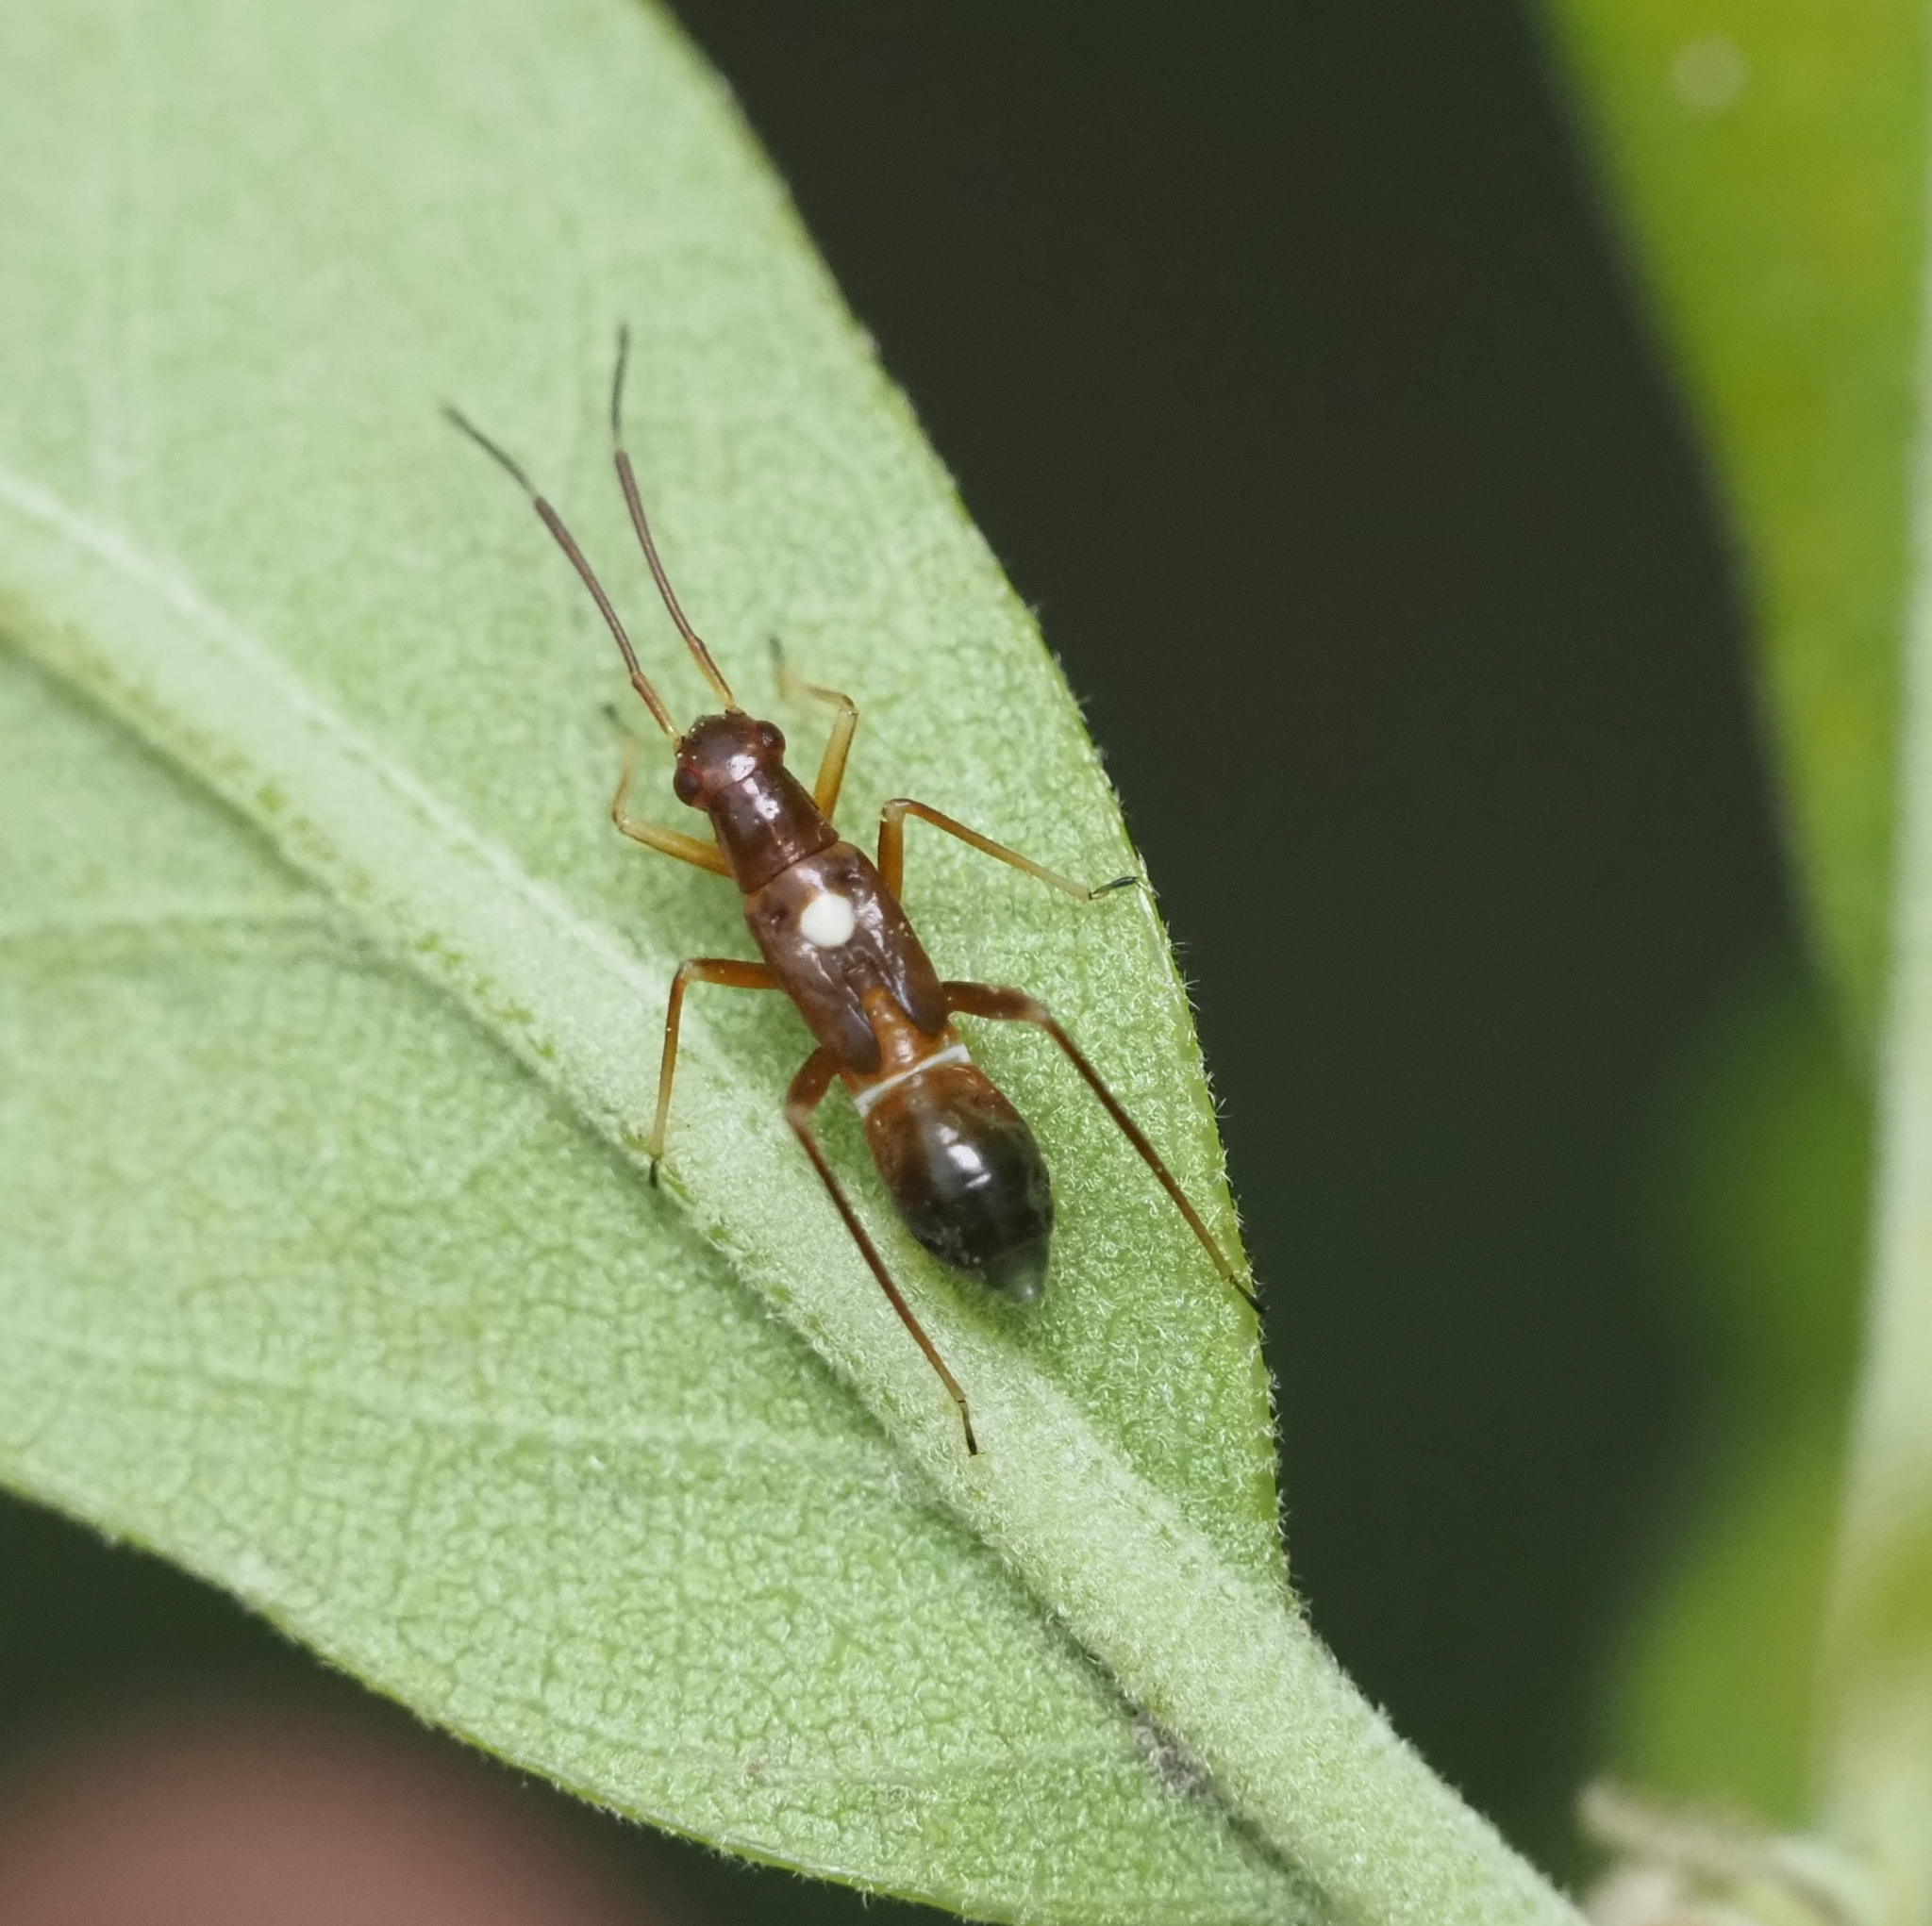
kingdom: Animalia
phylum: Arthropoda
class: Insecta
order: Hemiptera
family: Miridae
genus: Pseudoxenetus
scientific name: Pseudoxenetus regalis
